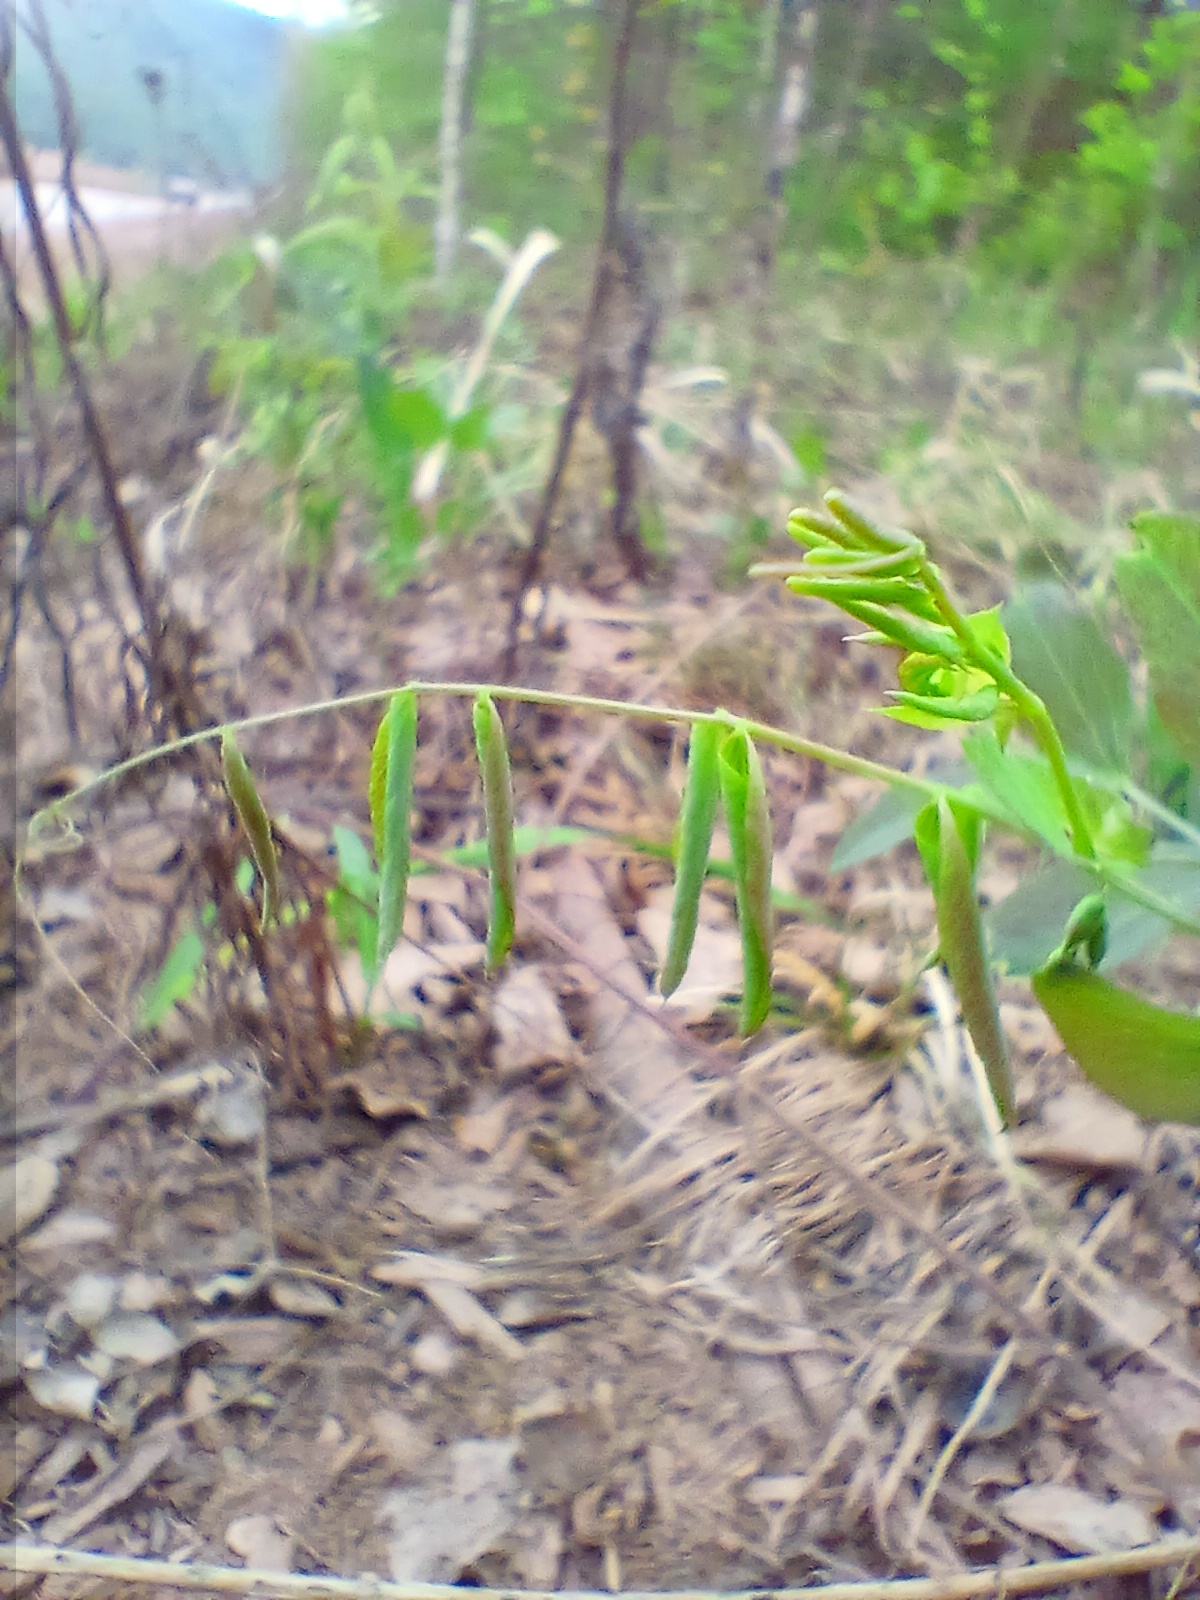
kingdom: Plantae
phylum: Tracheophyta
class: Magnoliopsida
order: Fabales
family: Fabaceae
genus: Lathyrus
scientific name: Lathyrus humilis
